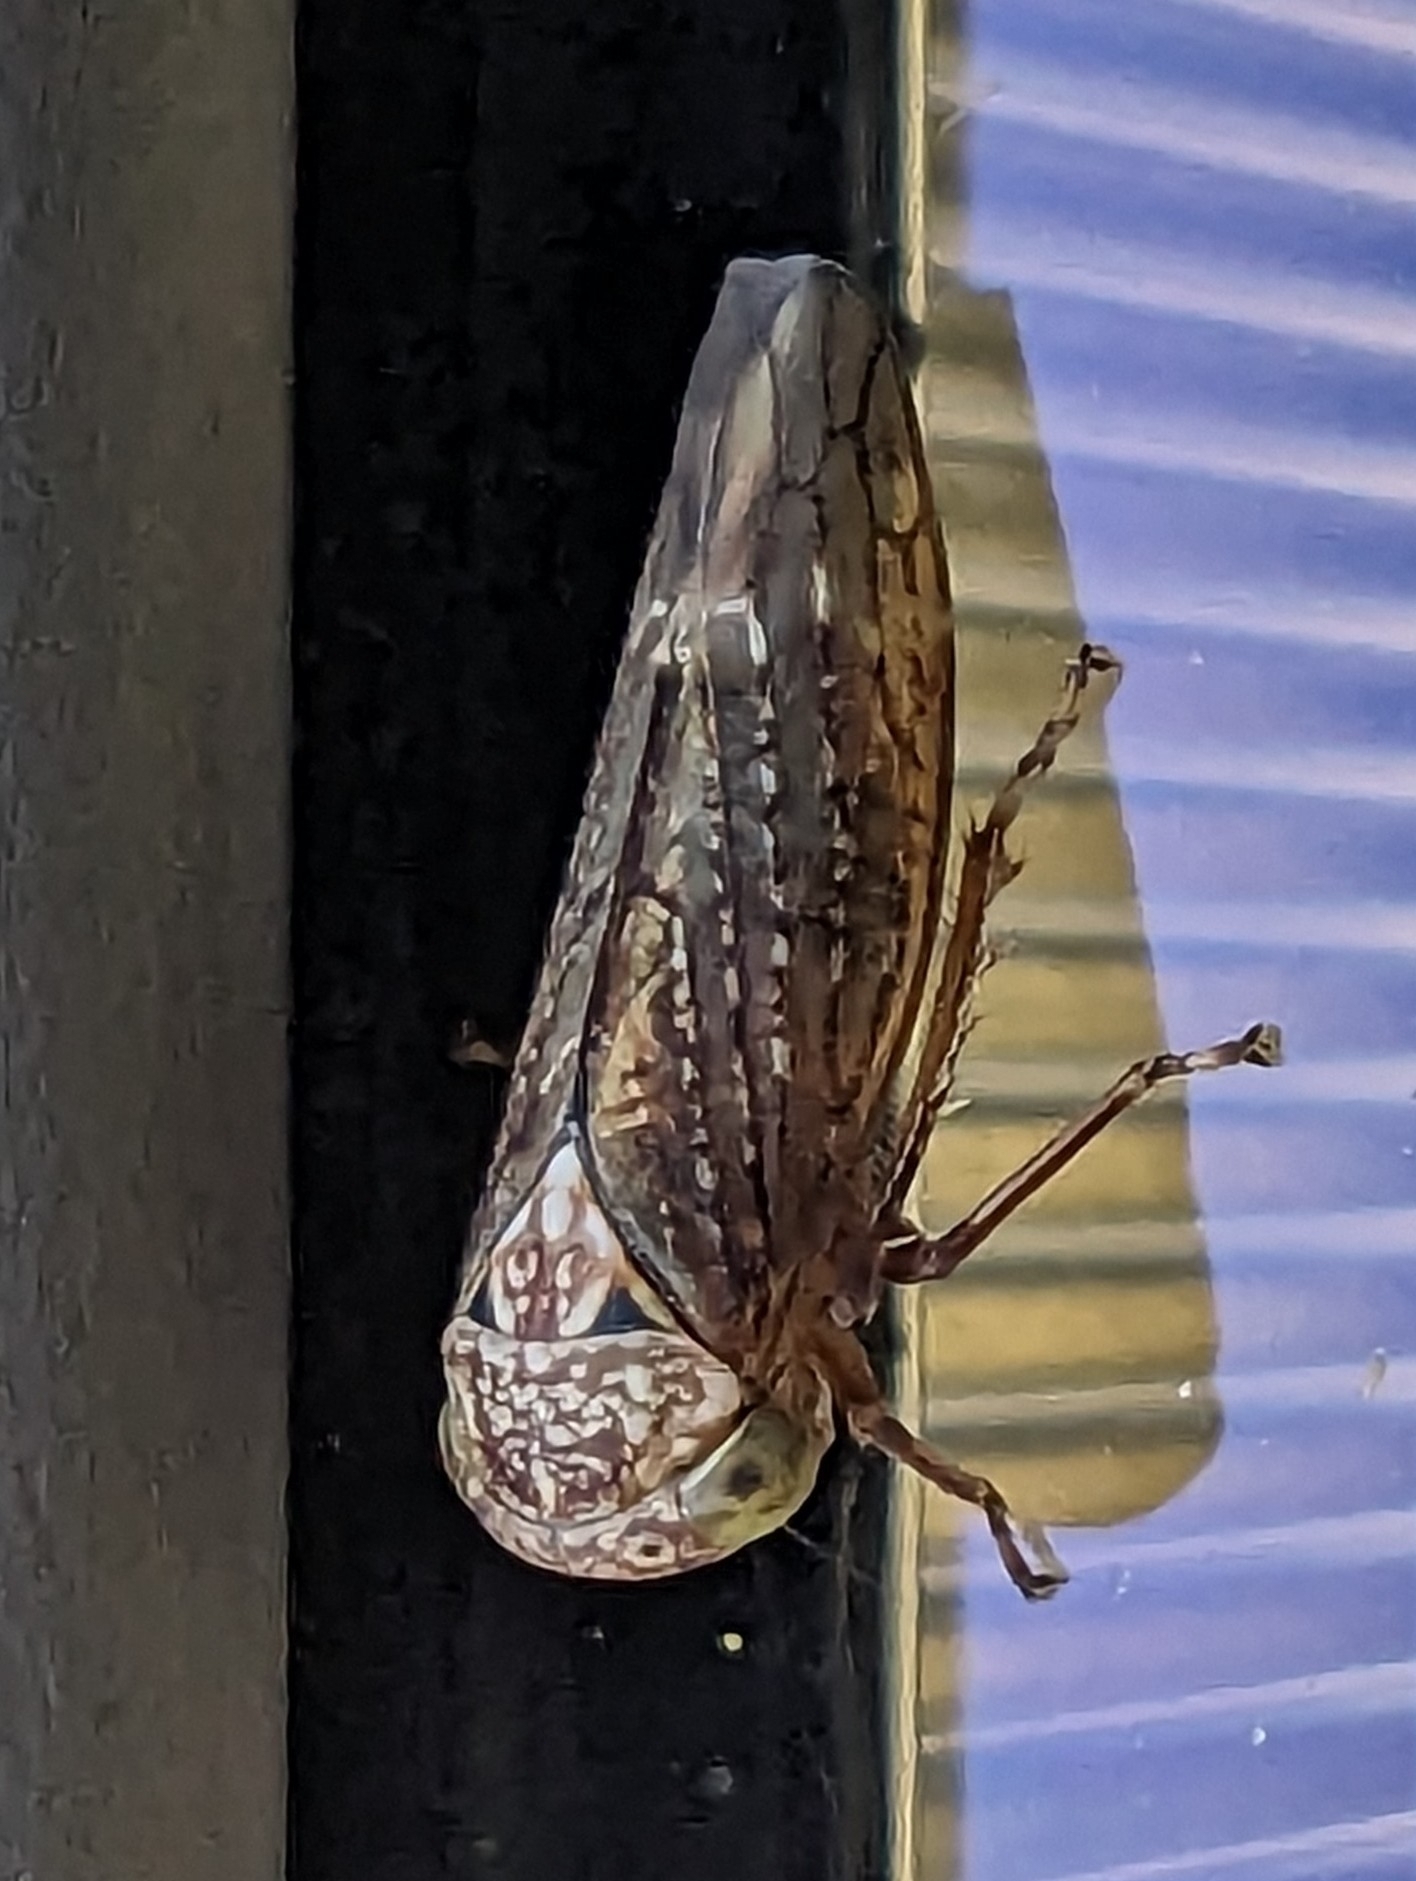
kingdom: Animalia
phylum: Arthropoda
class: Insecta
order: Hemiptera
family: Cicadellidae
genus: Acericerus
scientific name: Acericerus ribauti
